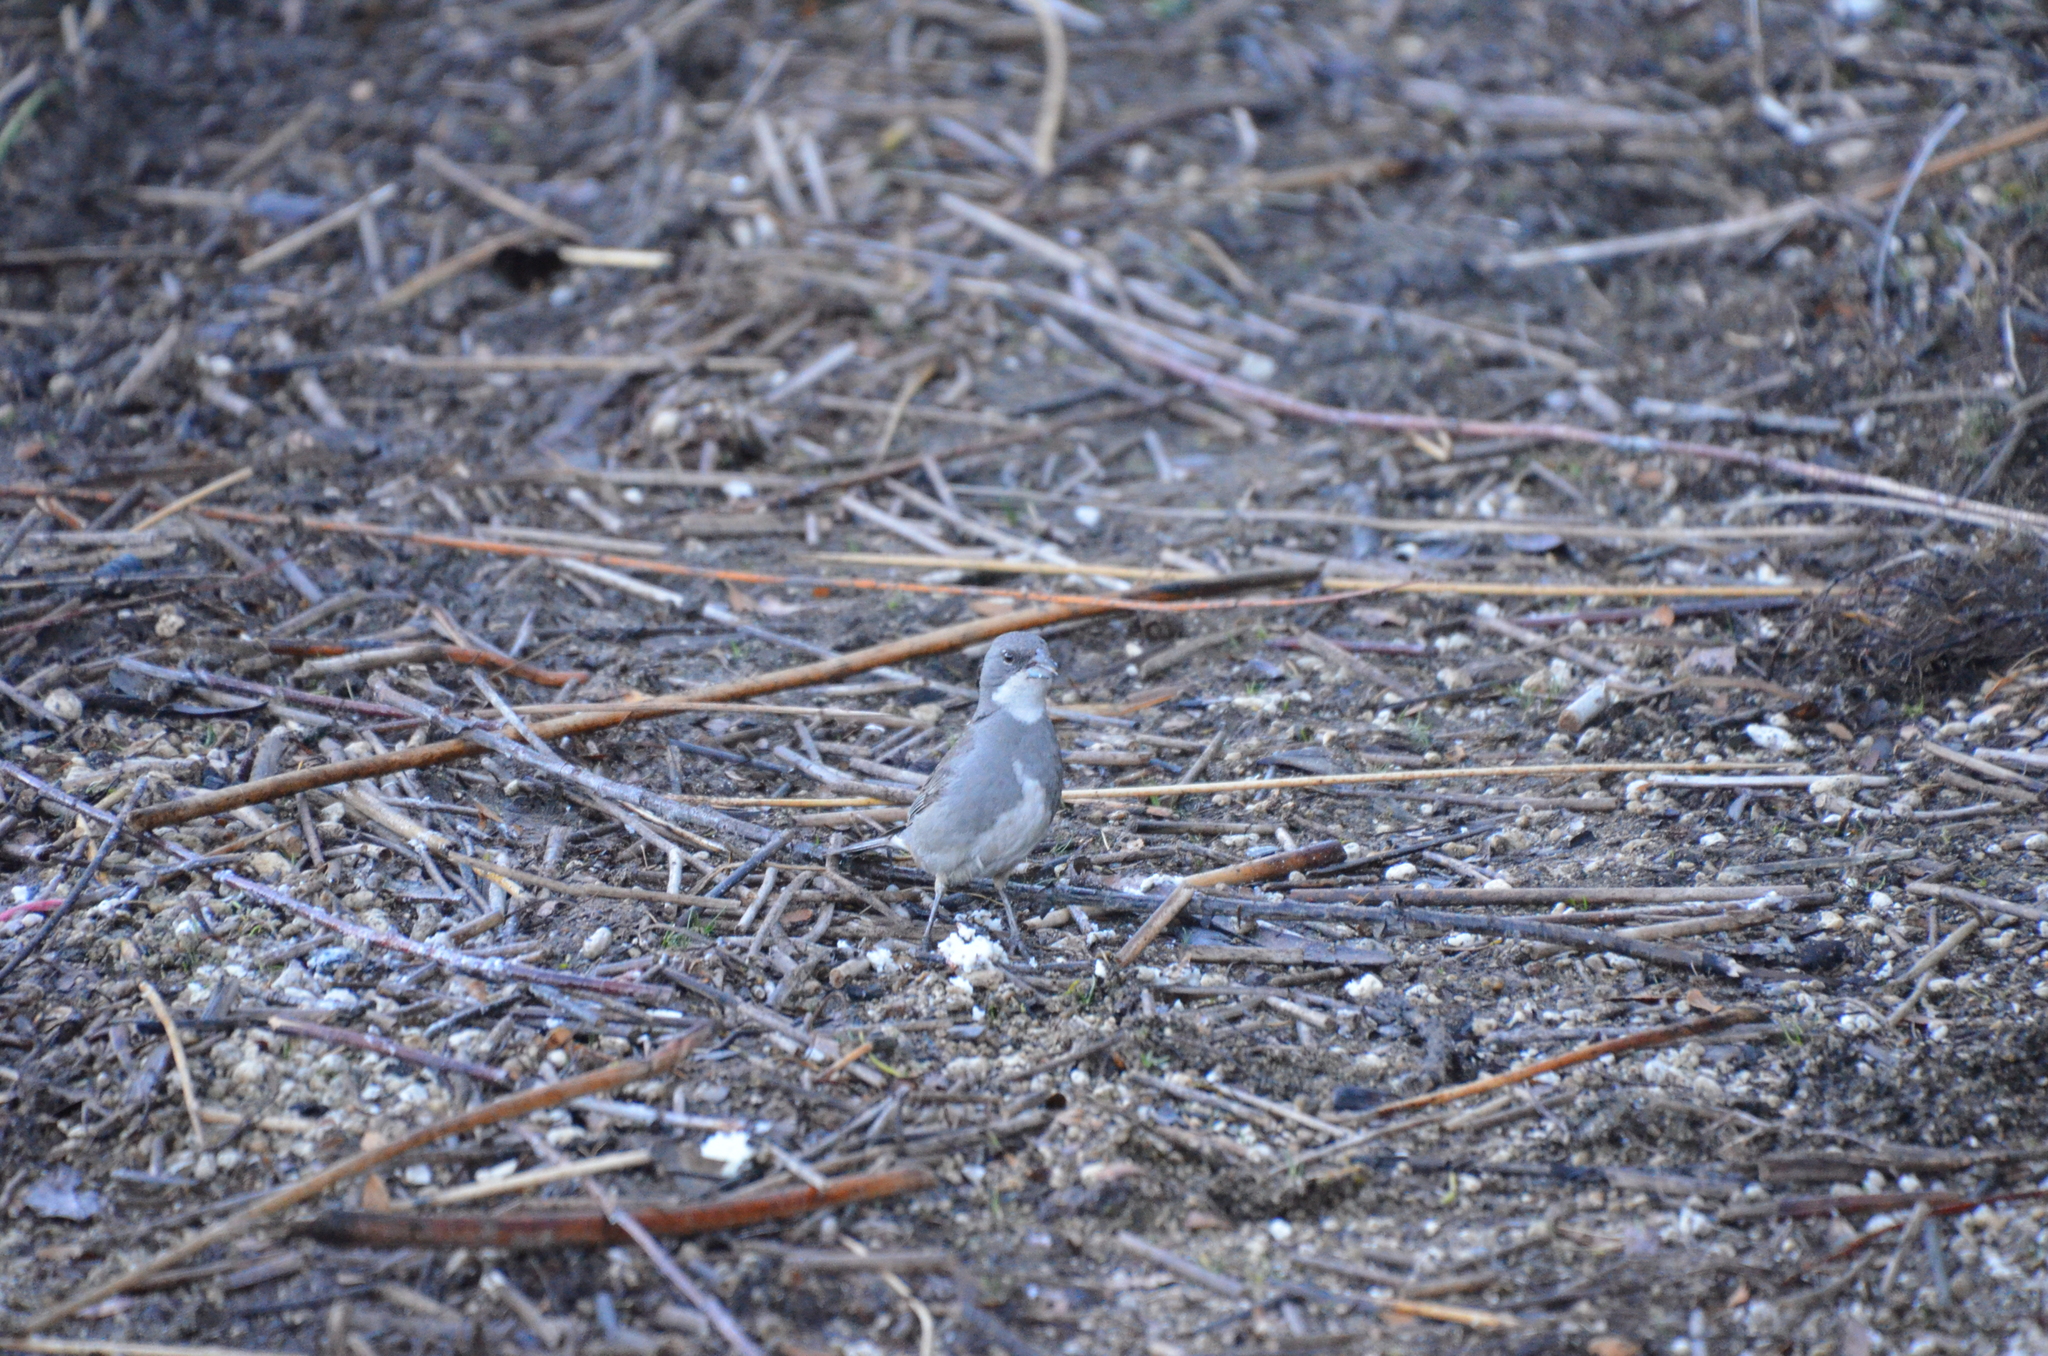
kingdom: Animalia
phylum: Chordata
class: Aves
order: Passeriformes
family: Thraupidae
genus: Diuca
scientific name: Diuca diuca
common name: Common diuca finch
